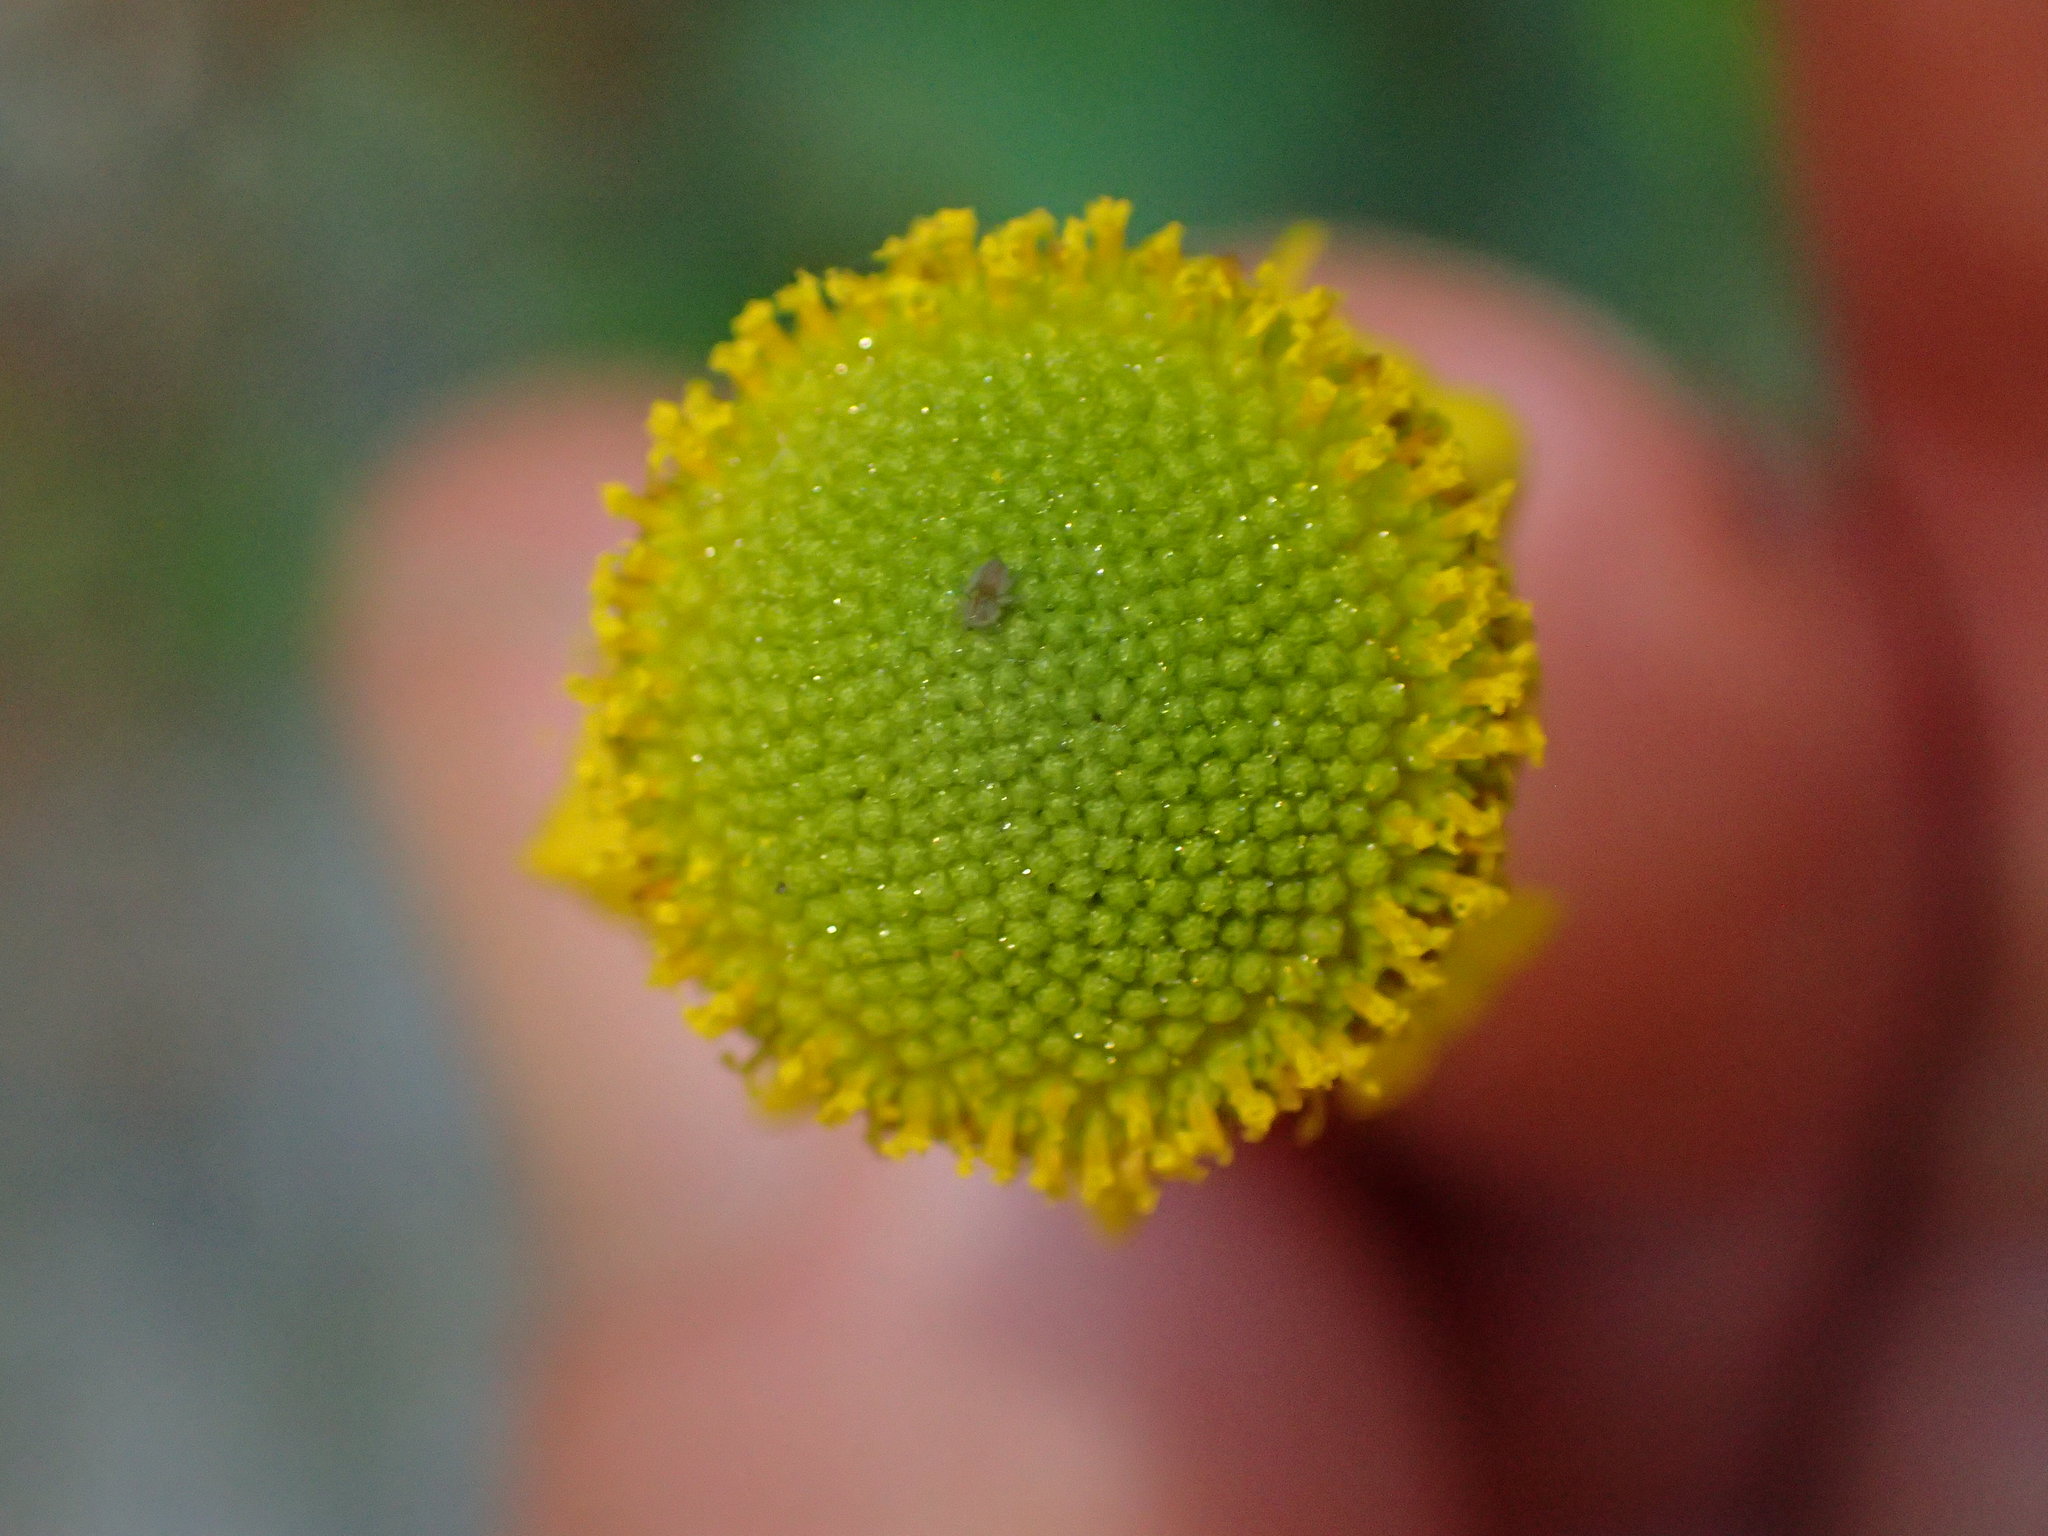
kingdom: Plantae
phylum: Tracheophyta
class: Magnoliopsida
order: Asterales
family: Asteraceae
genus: Helenium
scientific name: Helenium puberulum
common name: Sneezewort
